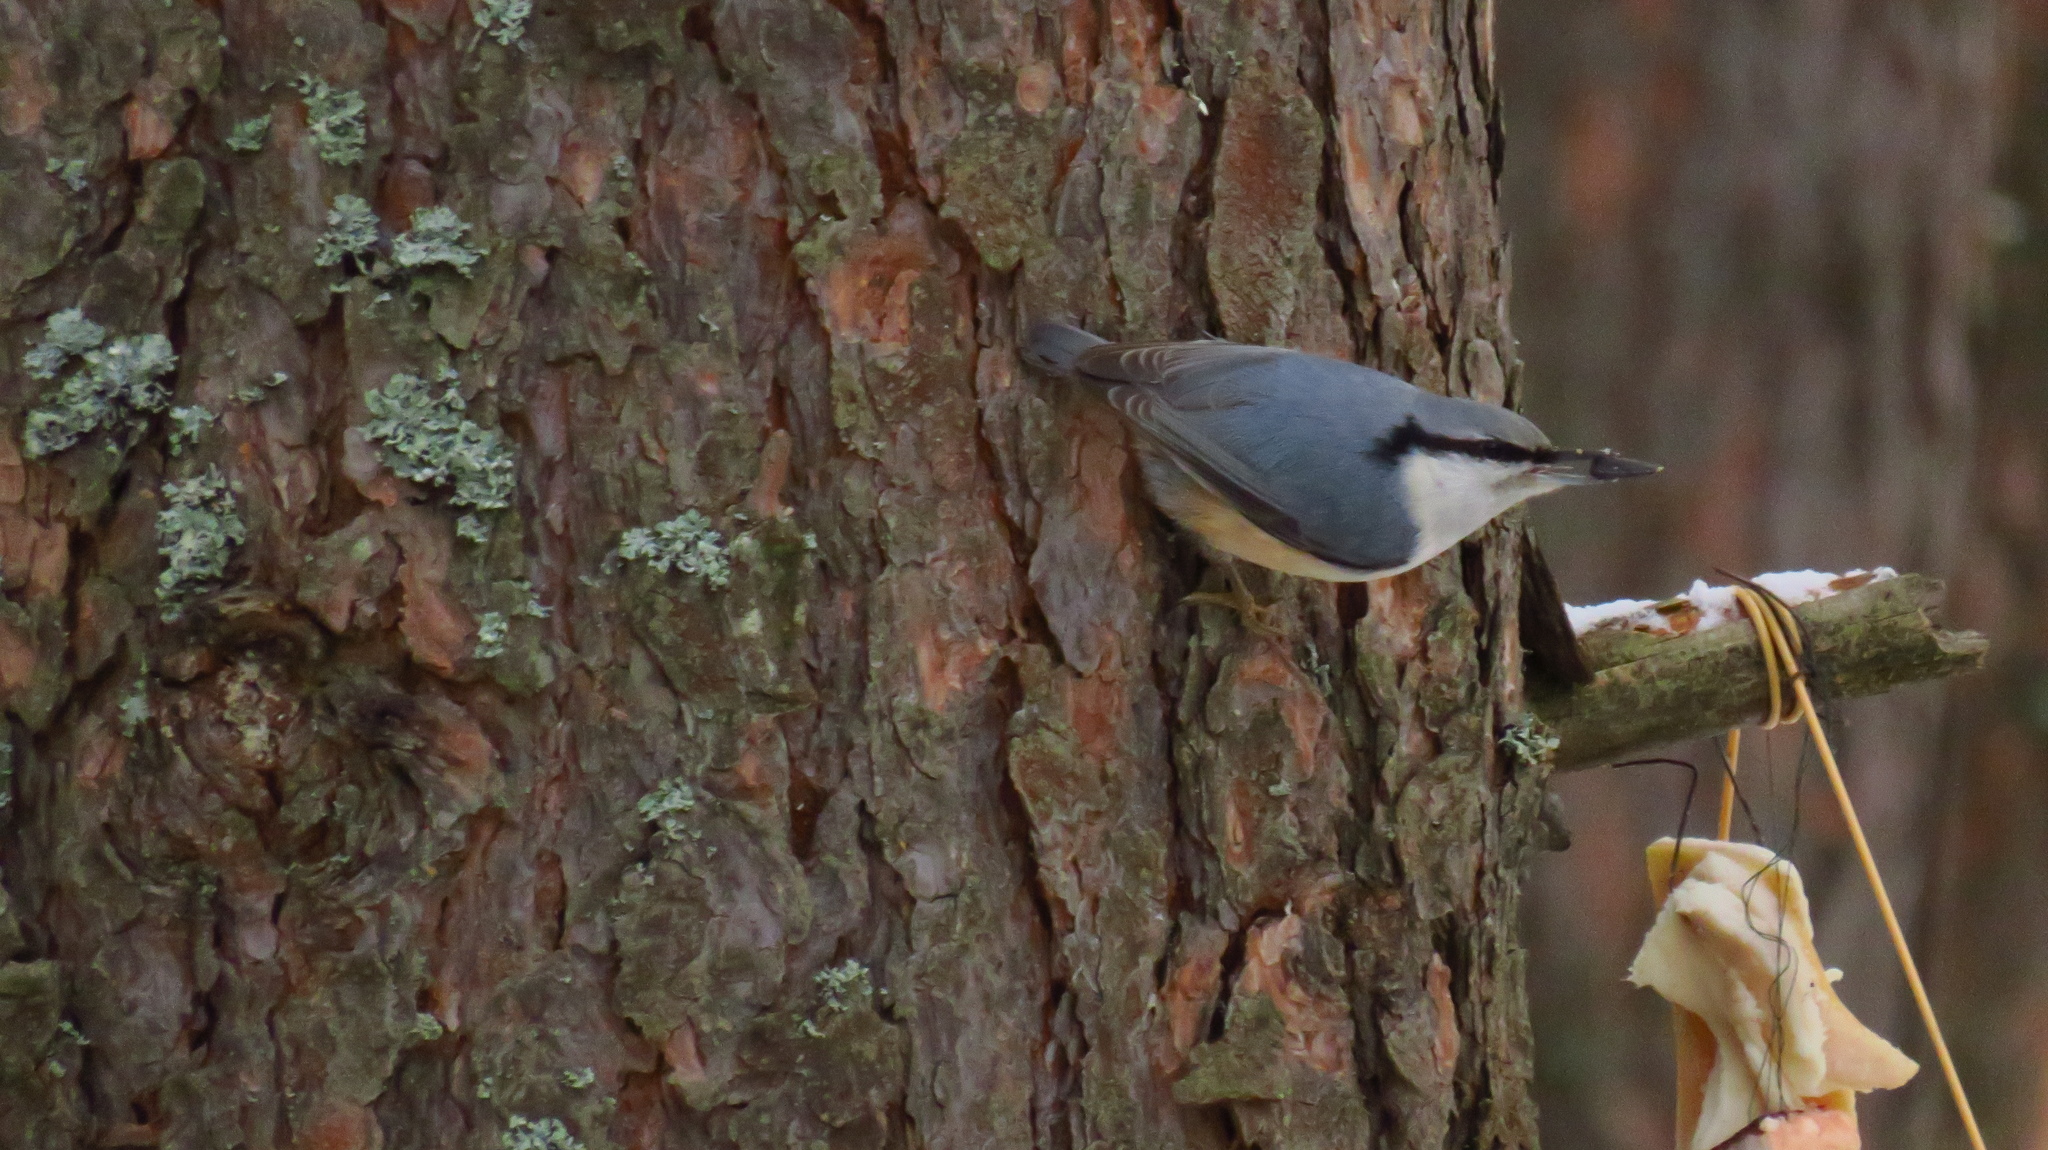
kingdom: Animalia
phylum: Chordata
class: Aves
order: Passeriformes
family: Sittidae
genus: Sitta
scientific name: Sitta europaea
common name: Eurasian nuthatch
